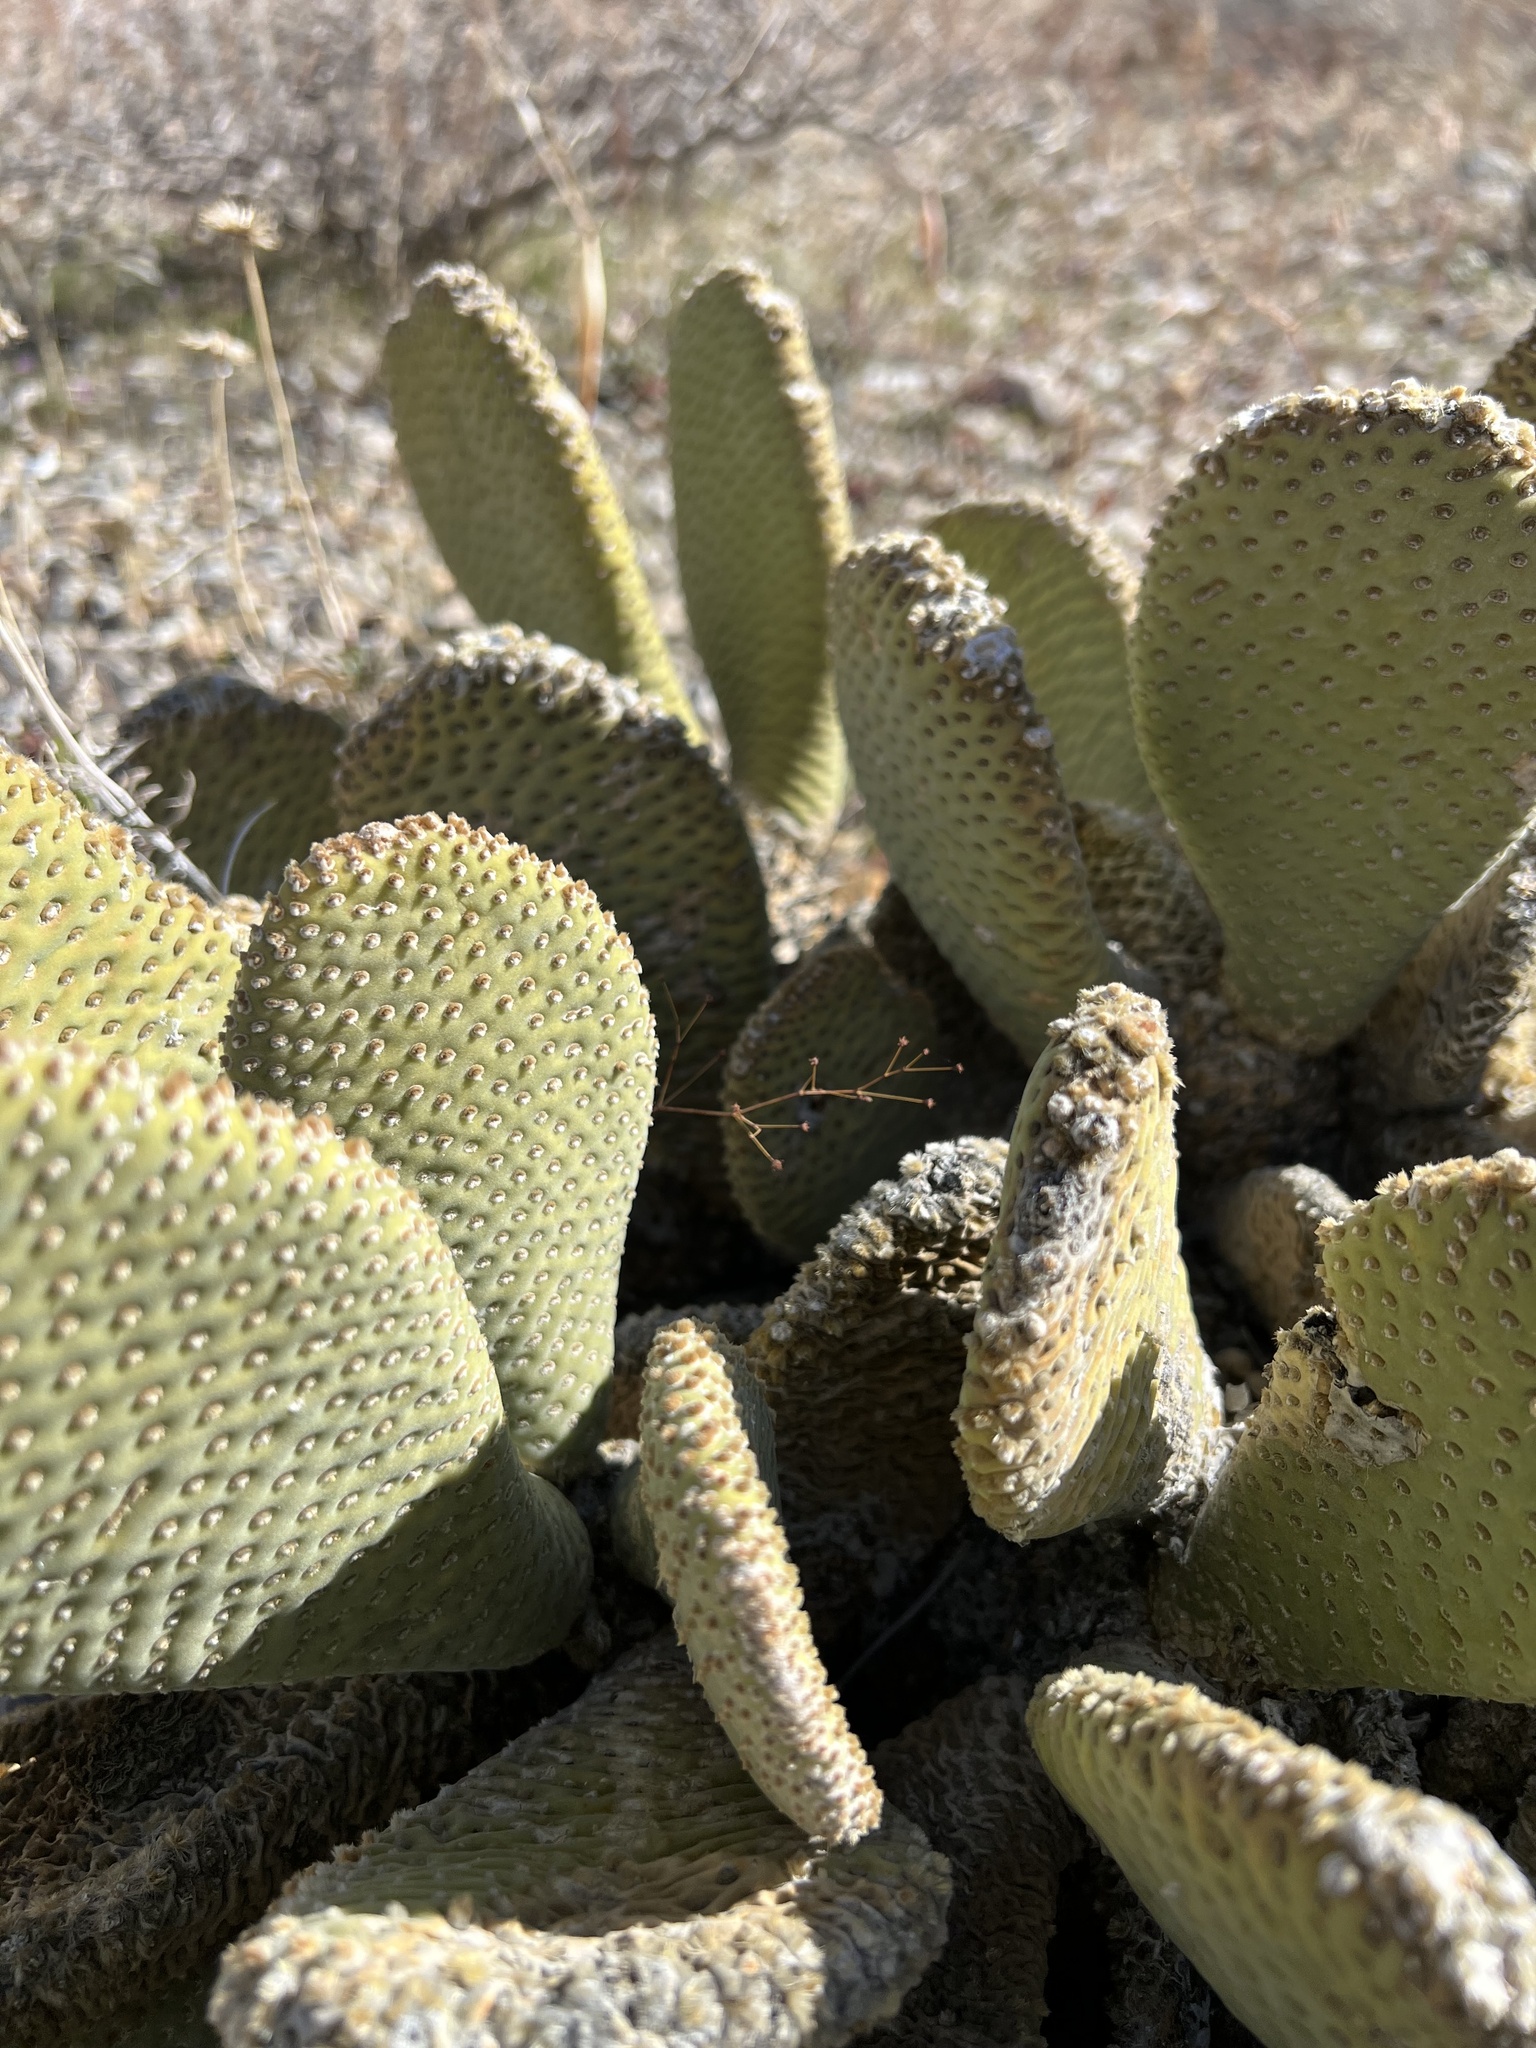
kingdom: Plantae
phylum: Tracheophyta
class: Magnoliopsida
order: Caryophyllales
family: Cactaceae
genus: Opuntia
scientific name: Opuntia basilaris
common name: Beavertail prickly-pear
